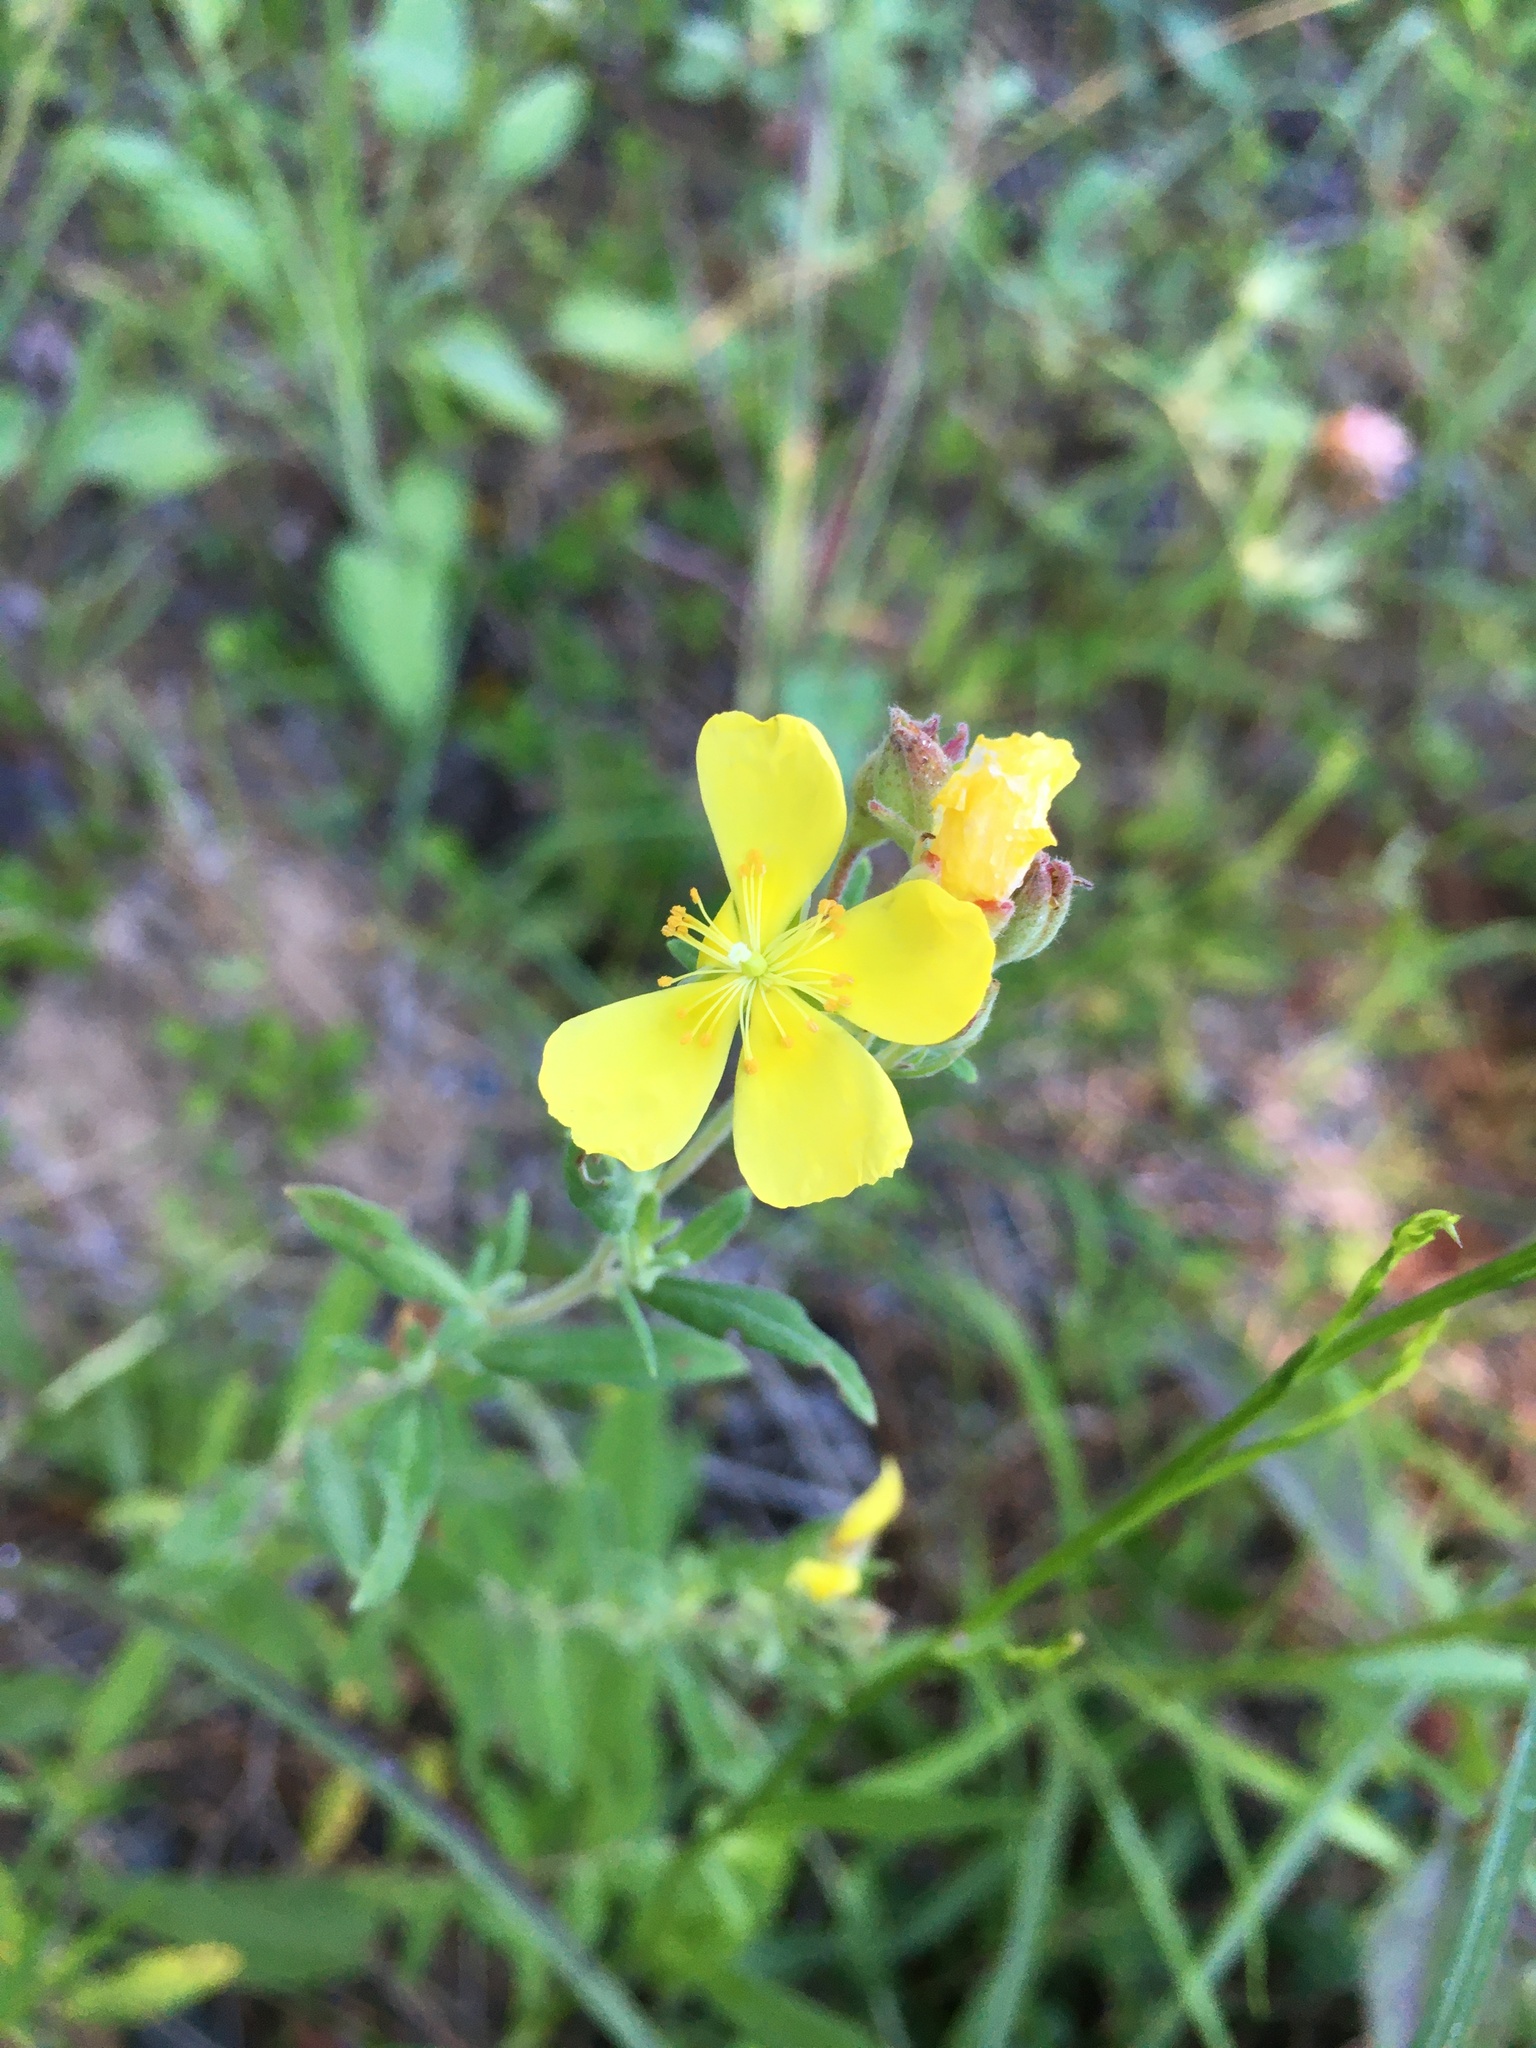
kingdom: Plantae
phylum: Tracheophyta
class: Magnoliopsida
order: Malvales
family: Cistaceae
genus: Crocanthemum
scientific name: Crocanthemum bicknellii
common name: Hoary frostweed
